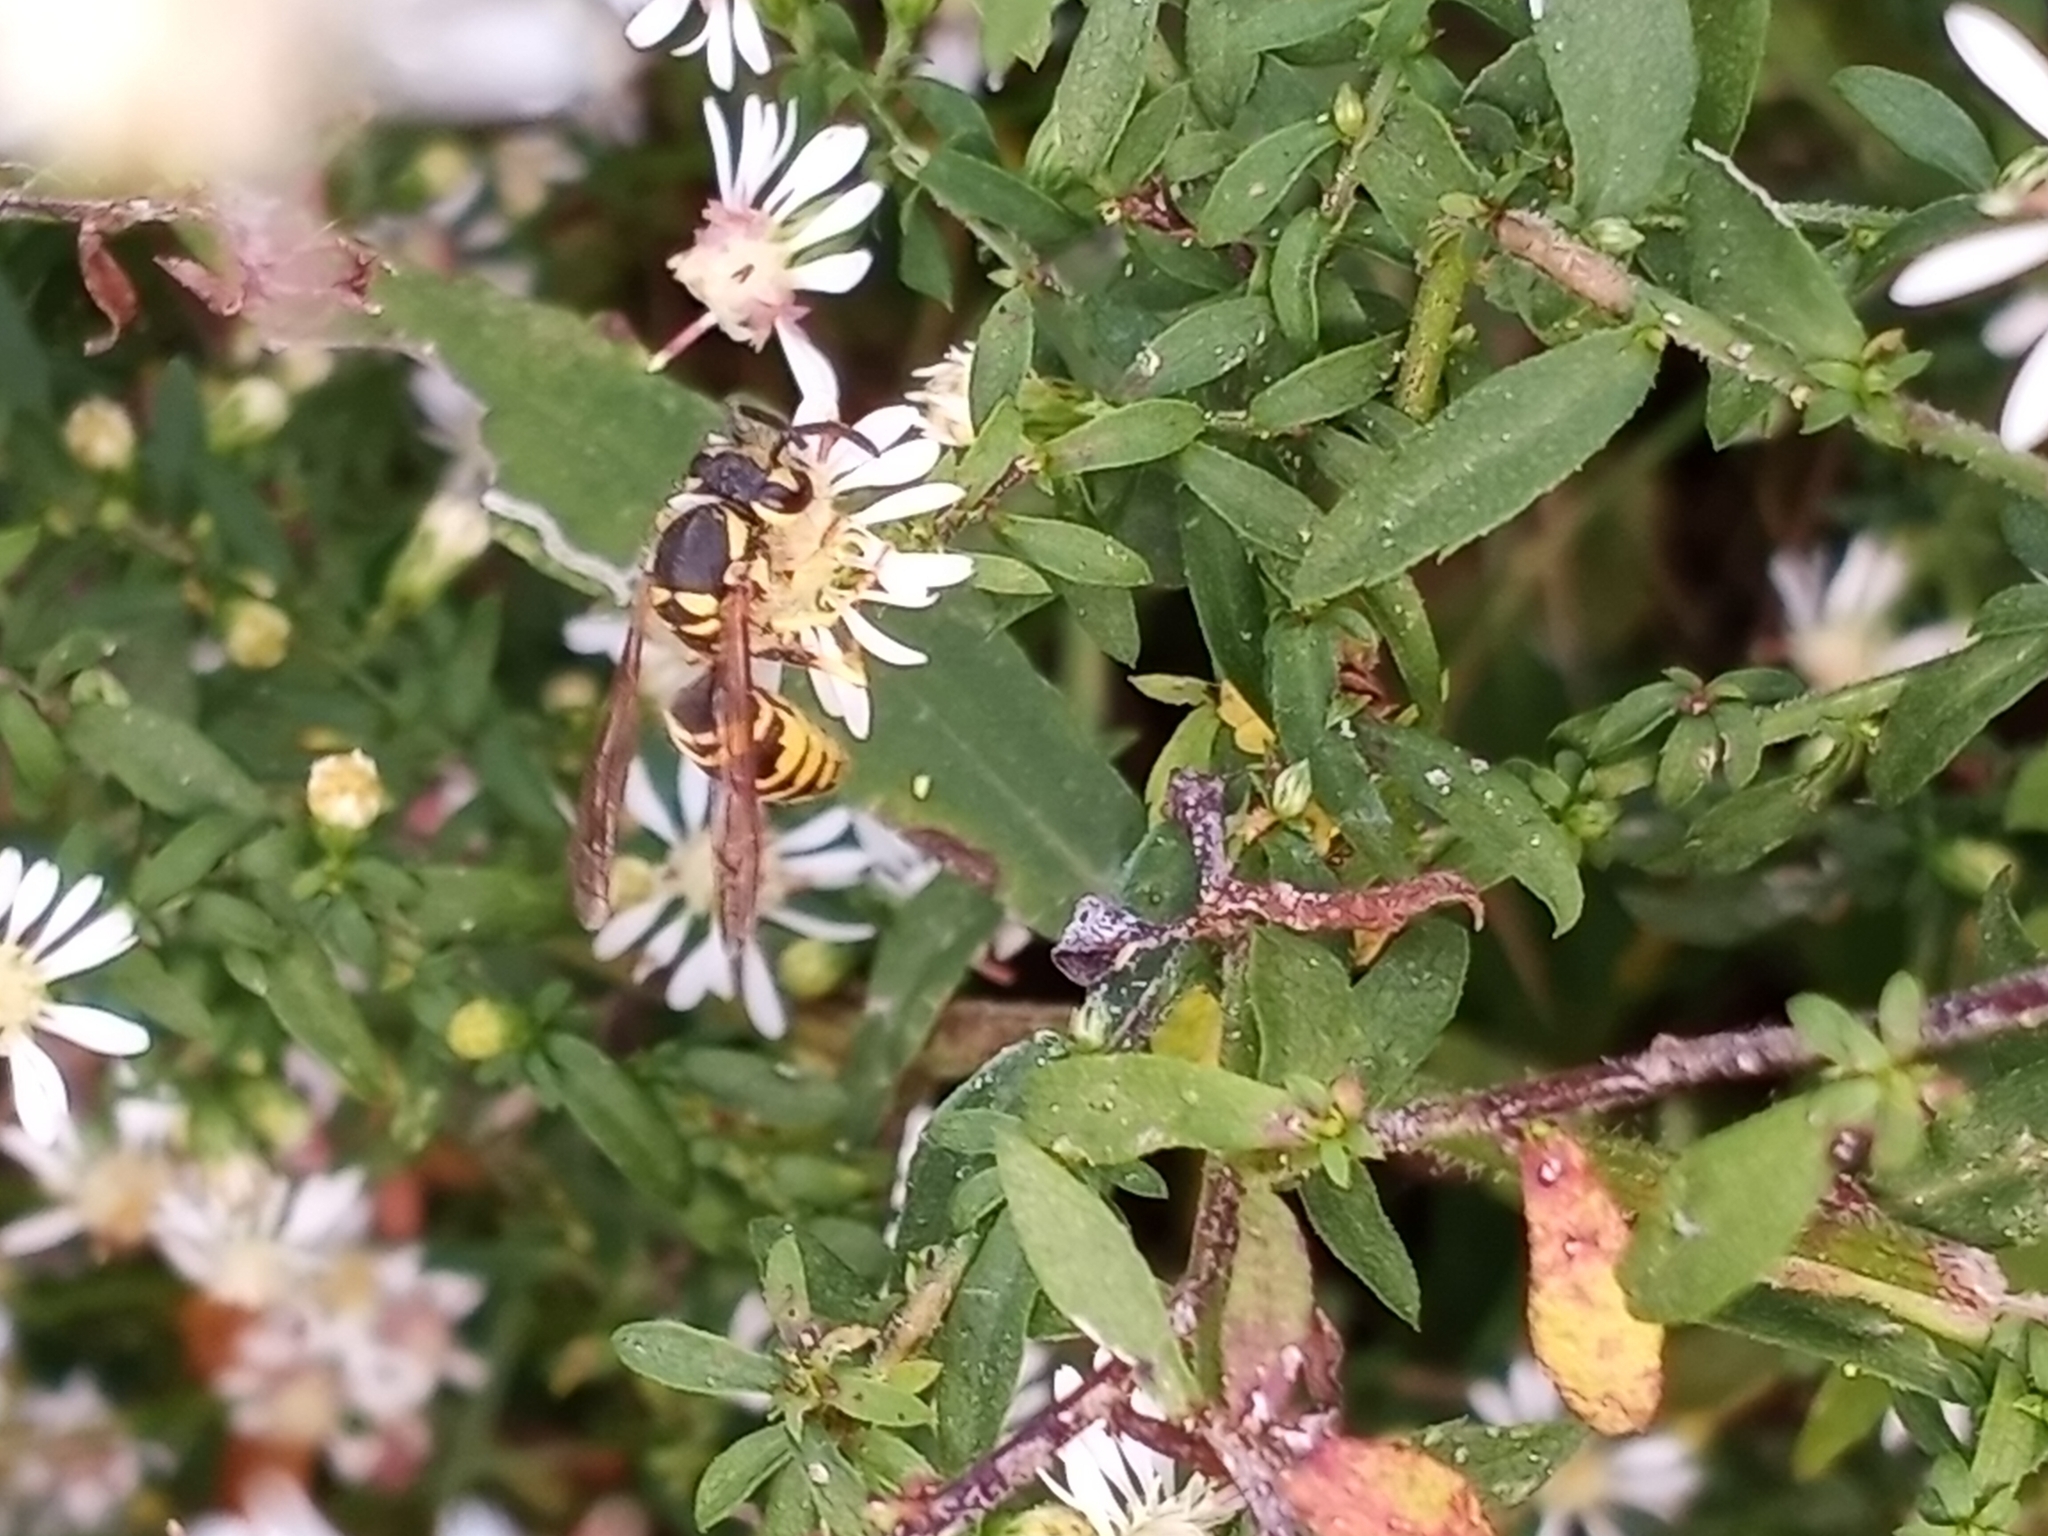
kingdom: Animalia
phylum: Arthropoda
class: Insecta
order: Hymenoptera
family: Vespidae
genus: Vespula
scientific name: Vespula maculifrons
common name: Eastern yellowjacket
